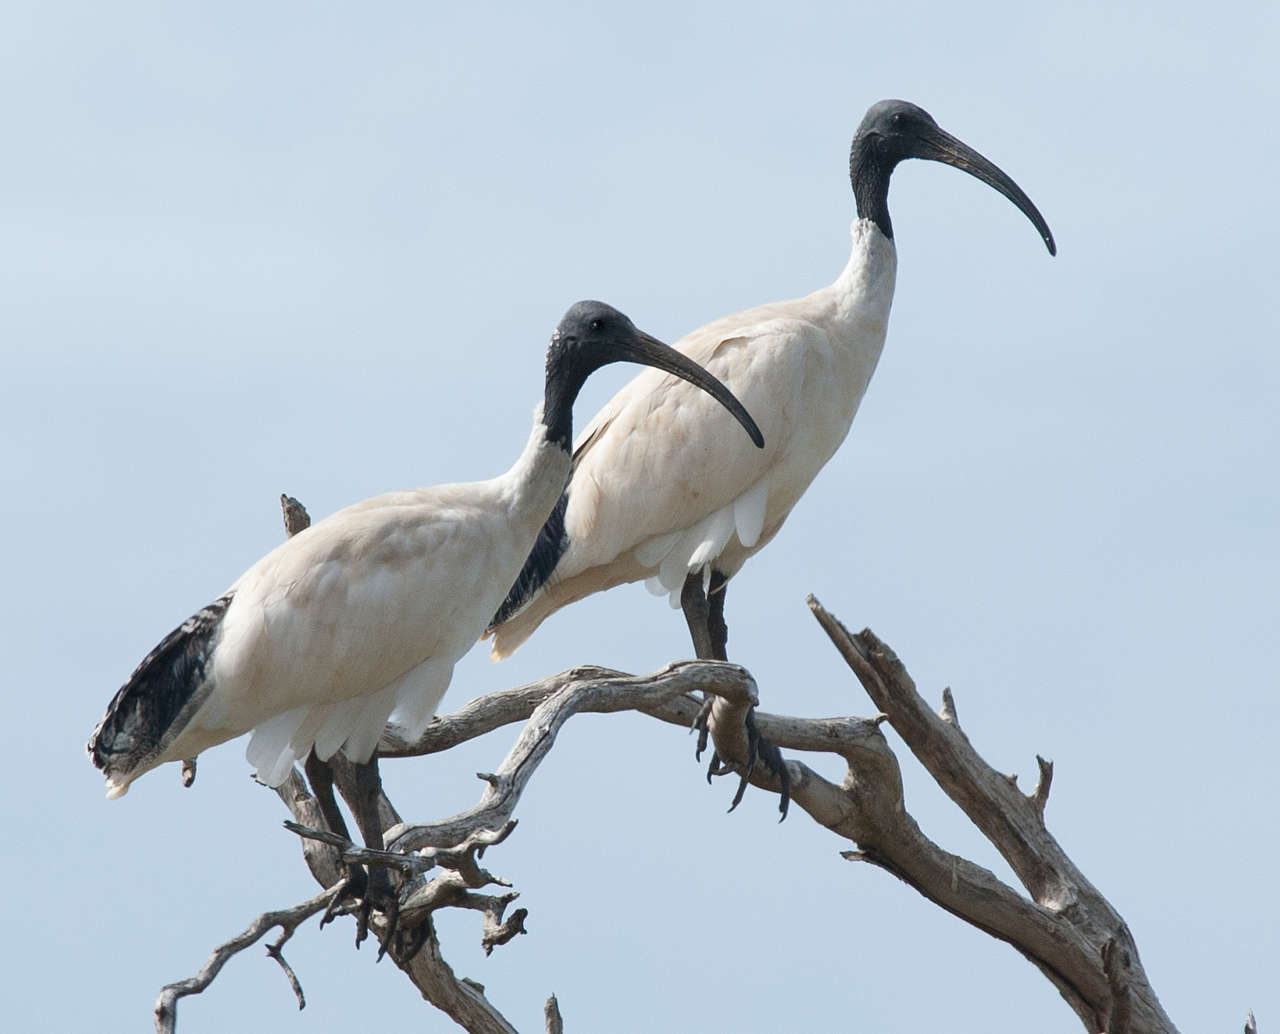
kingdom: Animalia
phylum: Chordata
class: Aves
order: Pelecaniformes
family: Threskiornithidae
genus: Threskiornis
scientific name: Threskiornis molucca
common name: Australian white ibis
